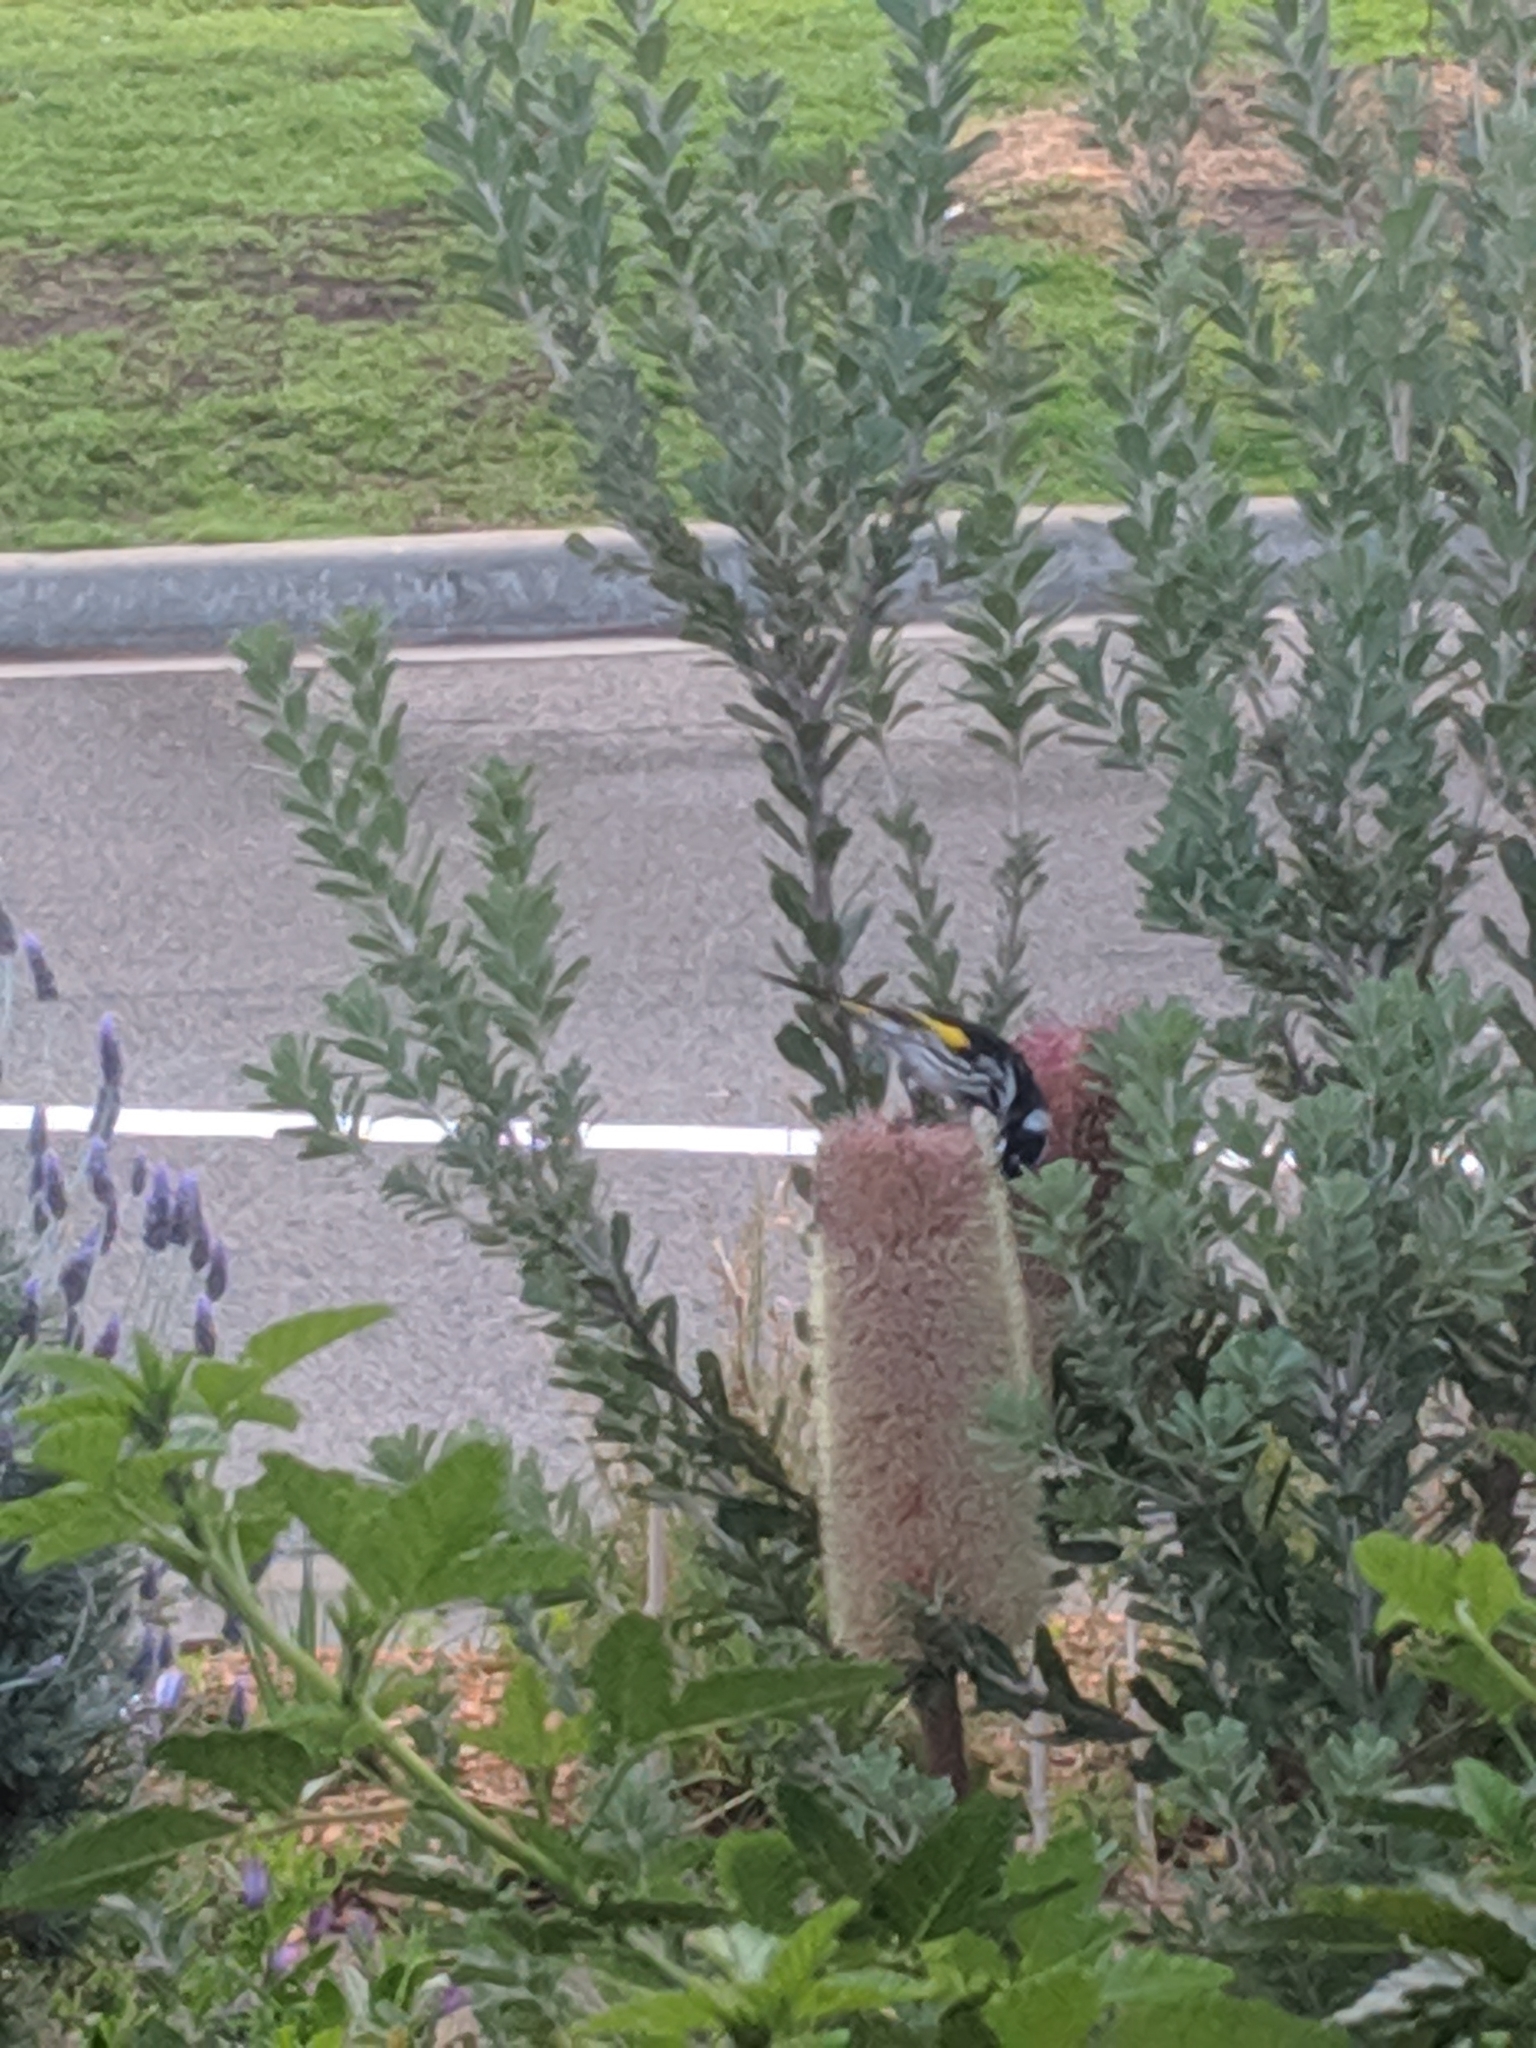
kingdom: Animalia
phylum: Chordata
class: Aves
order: Passeriformes
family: Meliphagidae
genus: Phylidonyris
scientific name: Phylidonyris novaehollandiae
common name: New holland honeyeater
